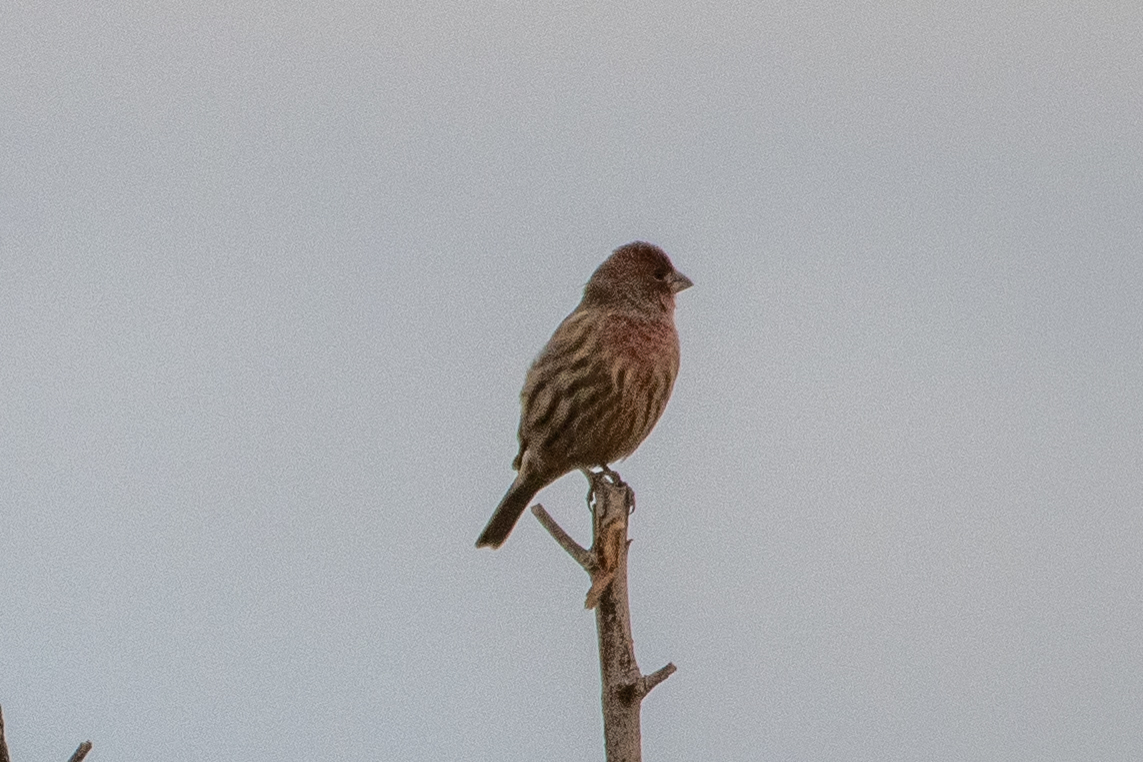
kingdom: Animalia
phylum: Chordata
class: Aves
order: Passeriformes
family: Fringillidae
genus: Haemorhous
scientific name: Haemorhous mexicanus
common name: House finch
